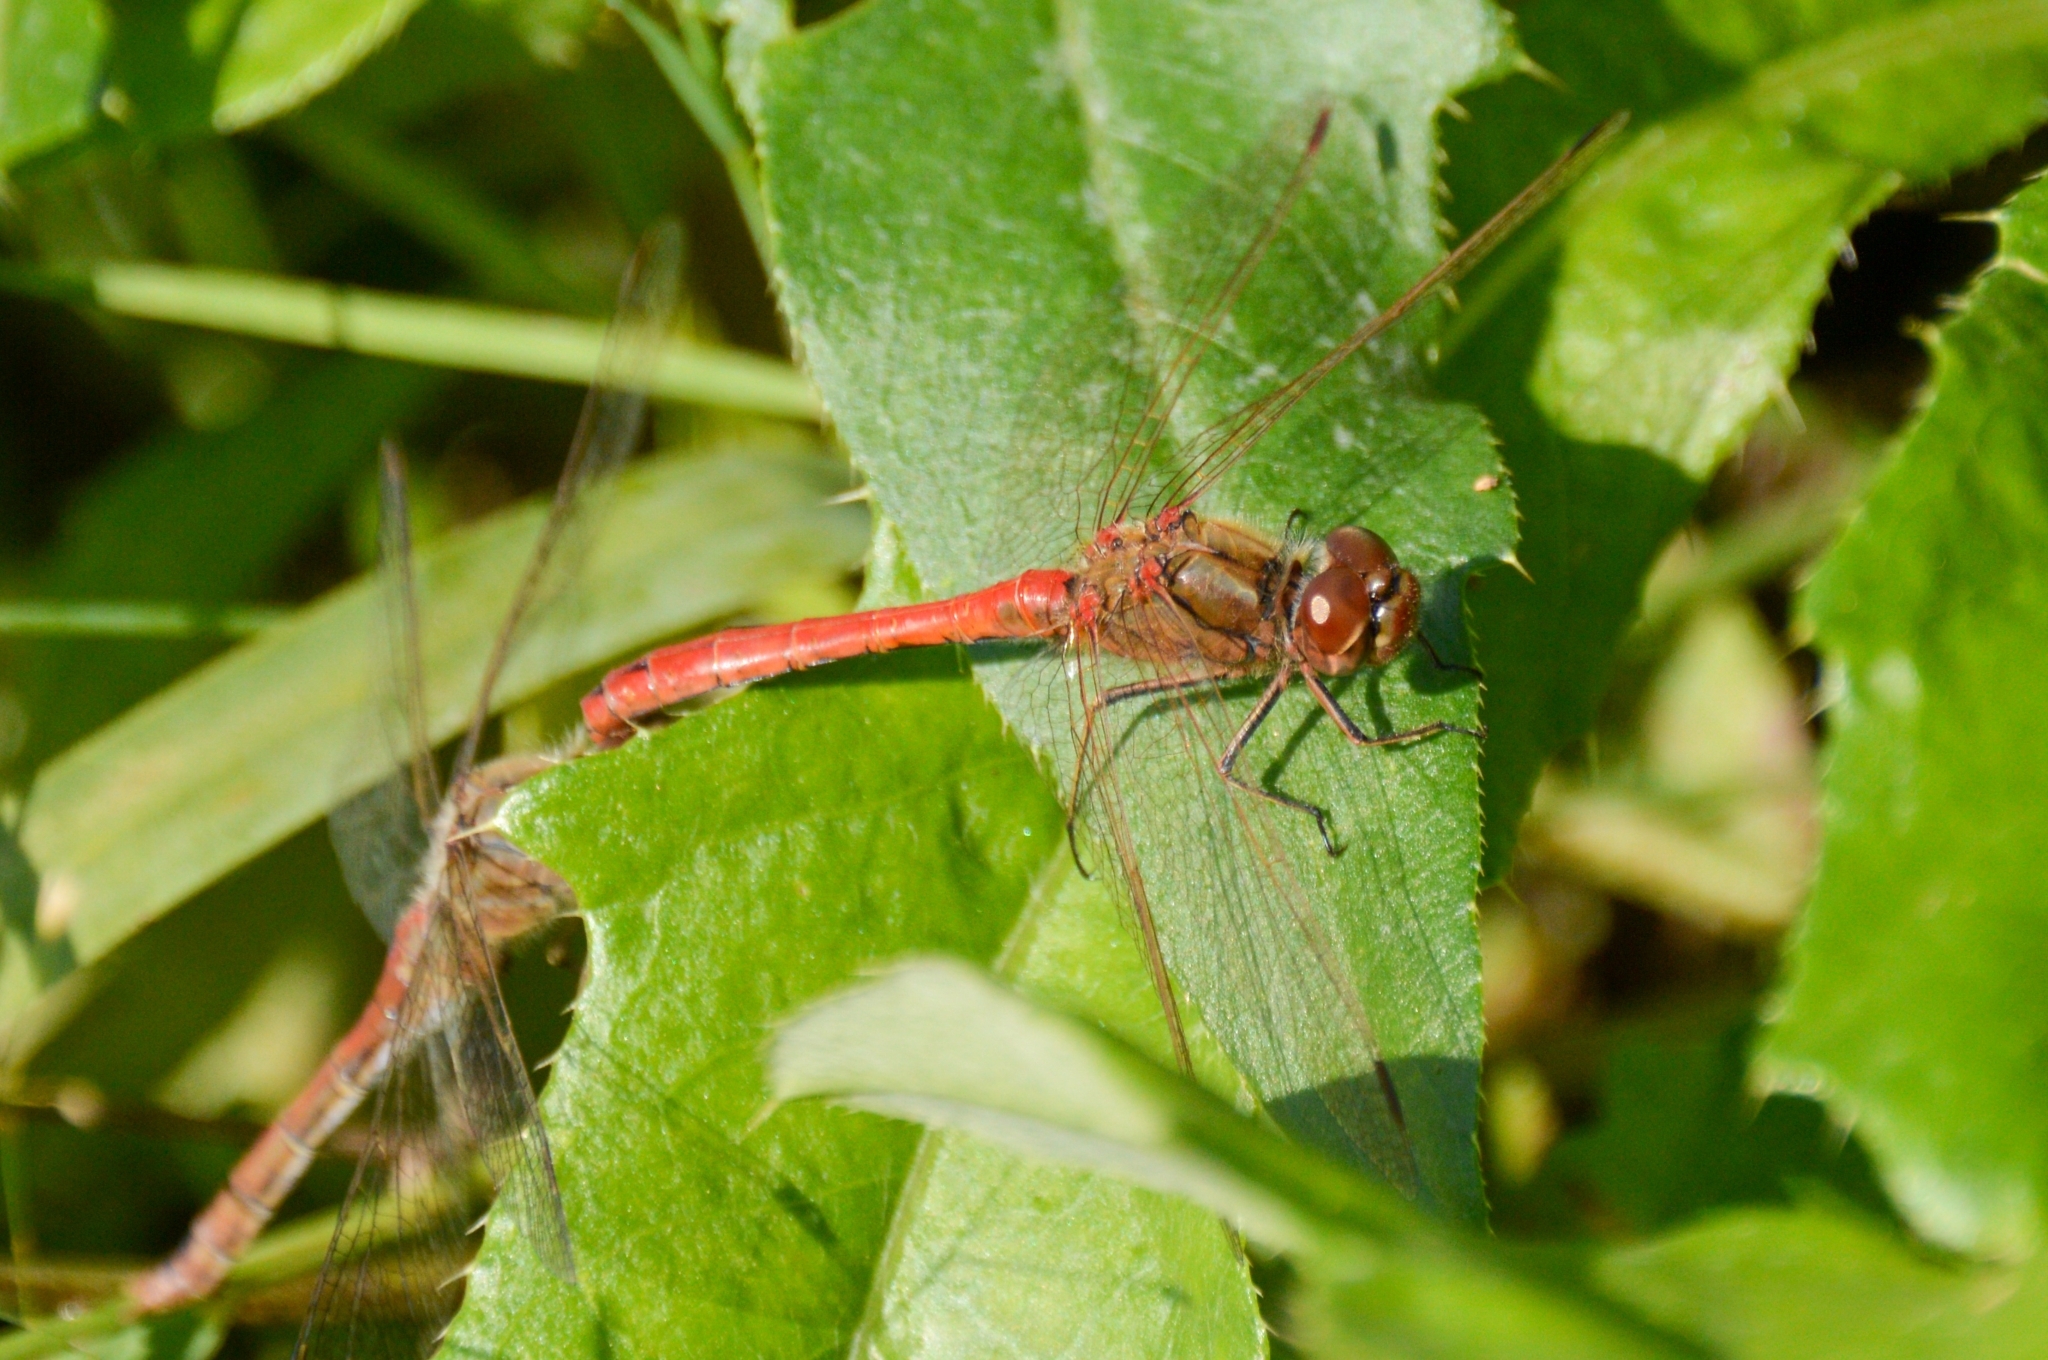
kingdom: Animalia
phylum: Arthropoda
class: Insecta
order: Odonata
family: Libellulidae
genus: Sympetrum
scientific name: Sympetrum vulgatum
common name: Vagrant darter
